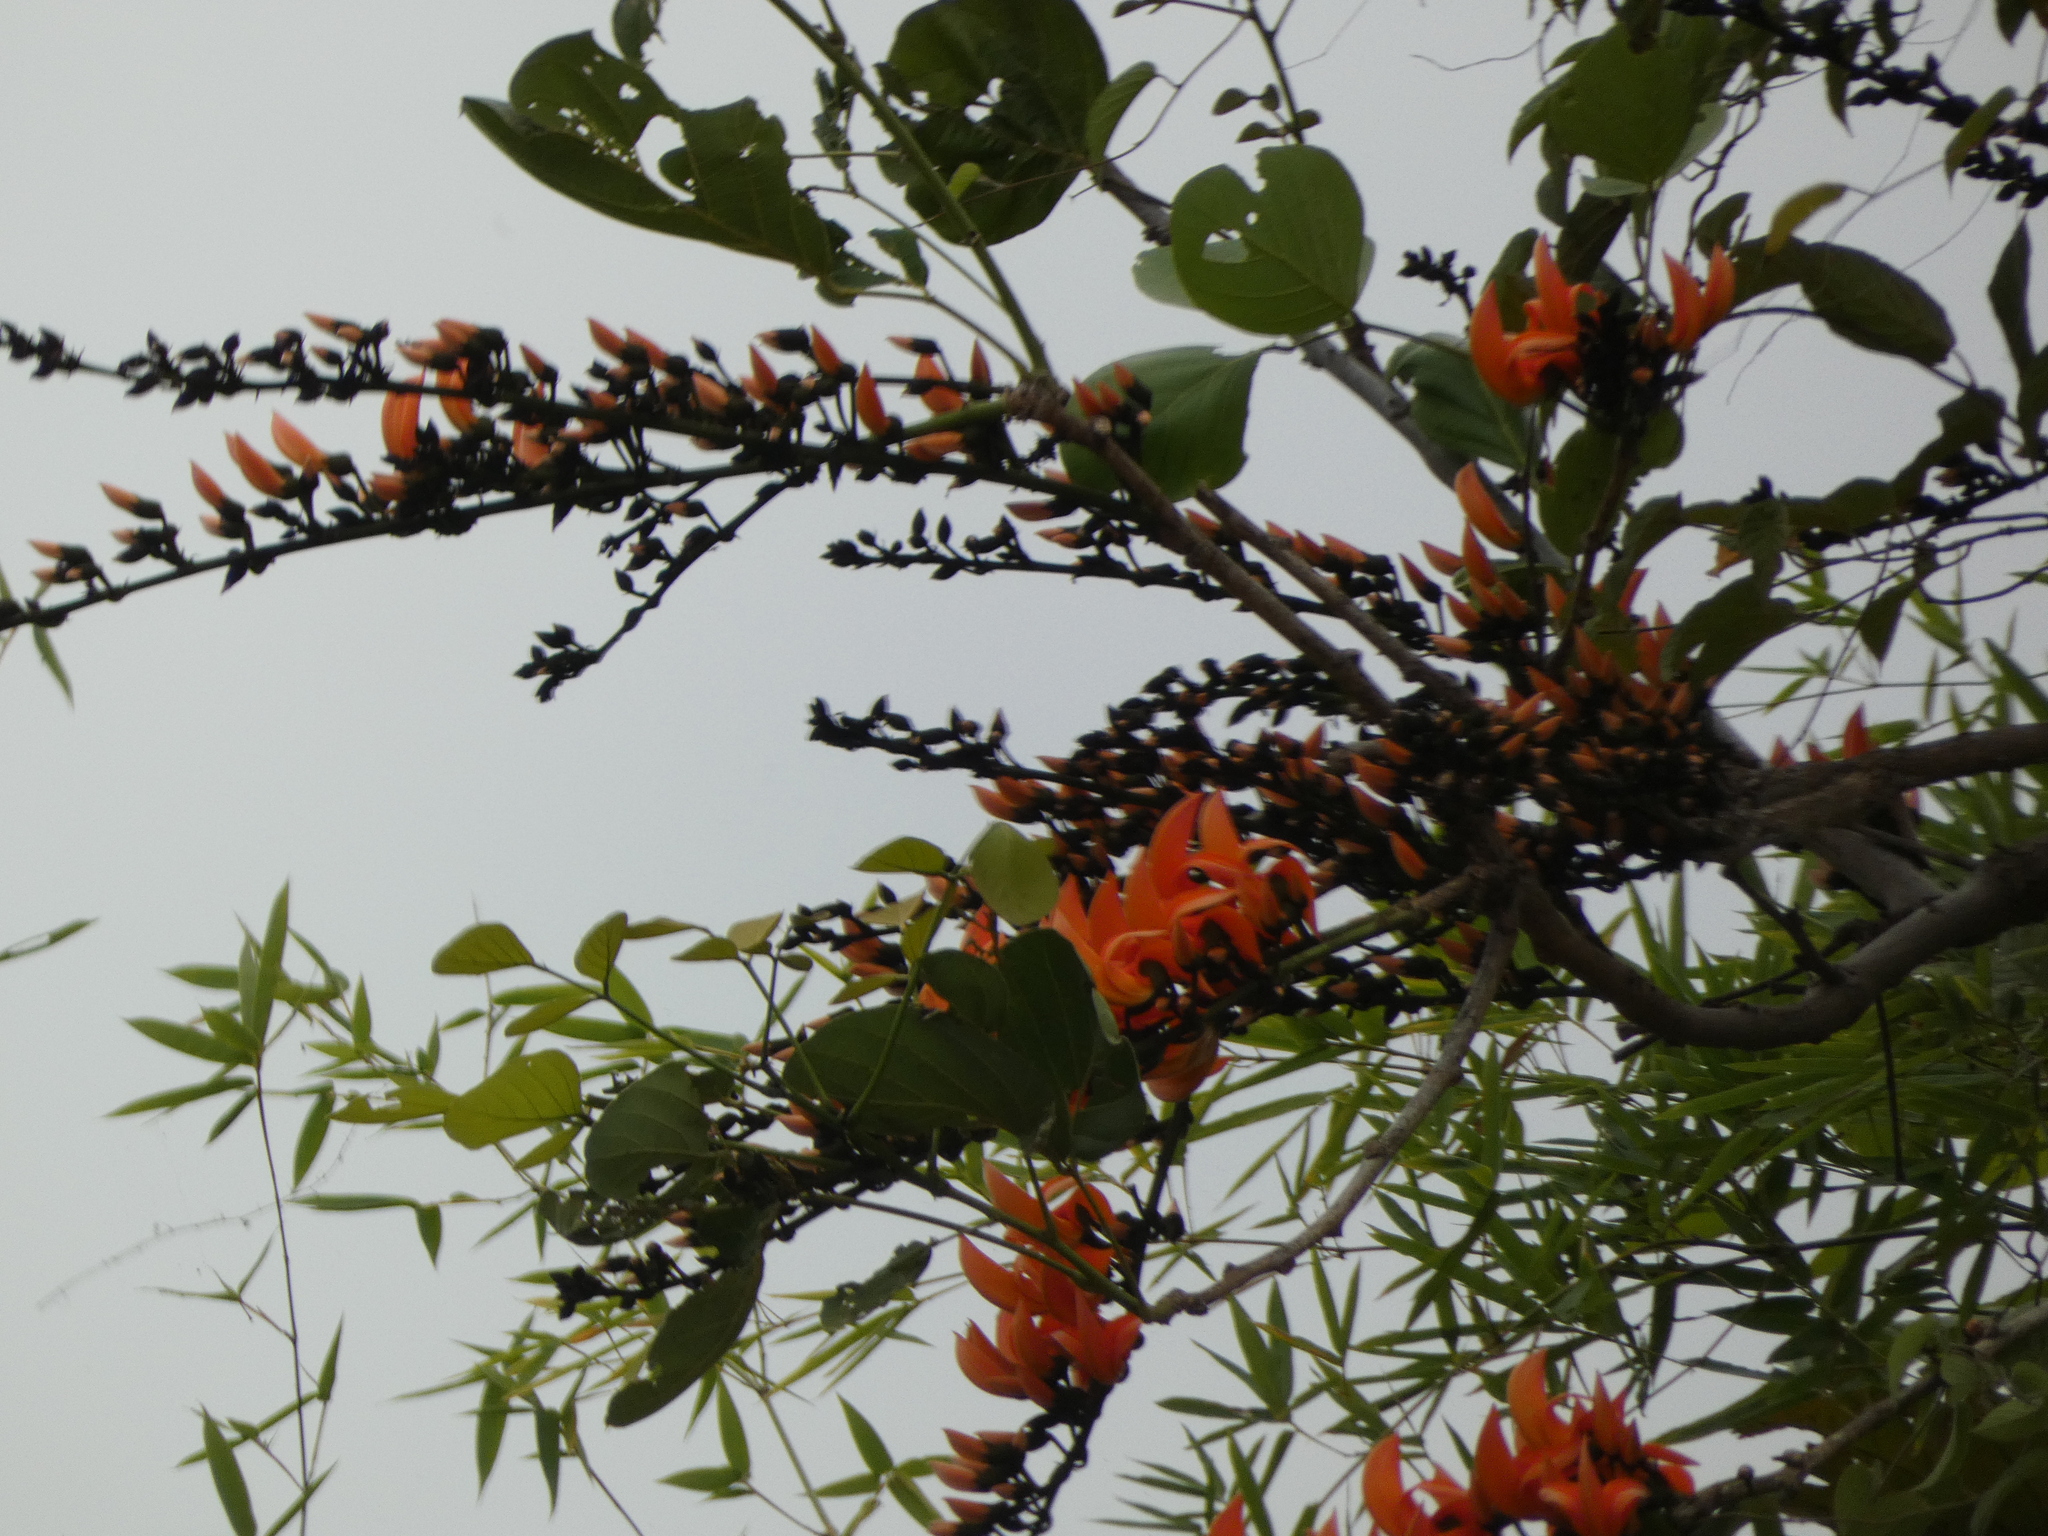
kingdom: Plantae
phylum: Tracheophyta
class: Magnoliopsida
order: Fabales
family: Fabaceae
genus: Butea
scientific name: Butea monosperma
